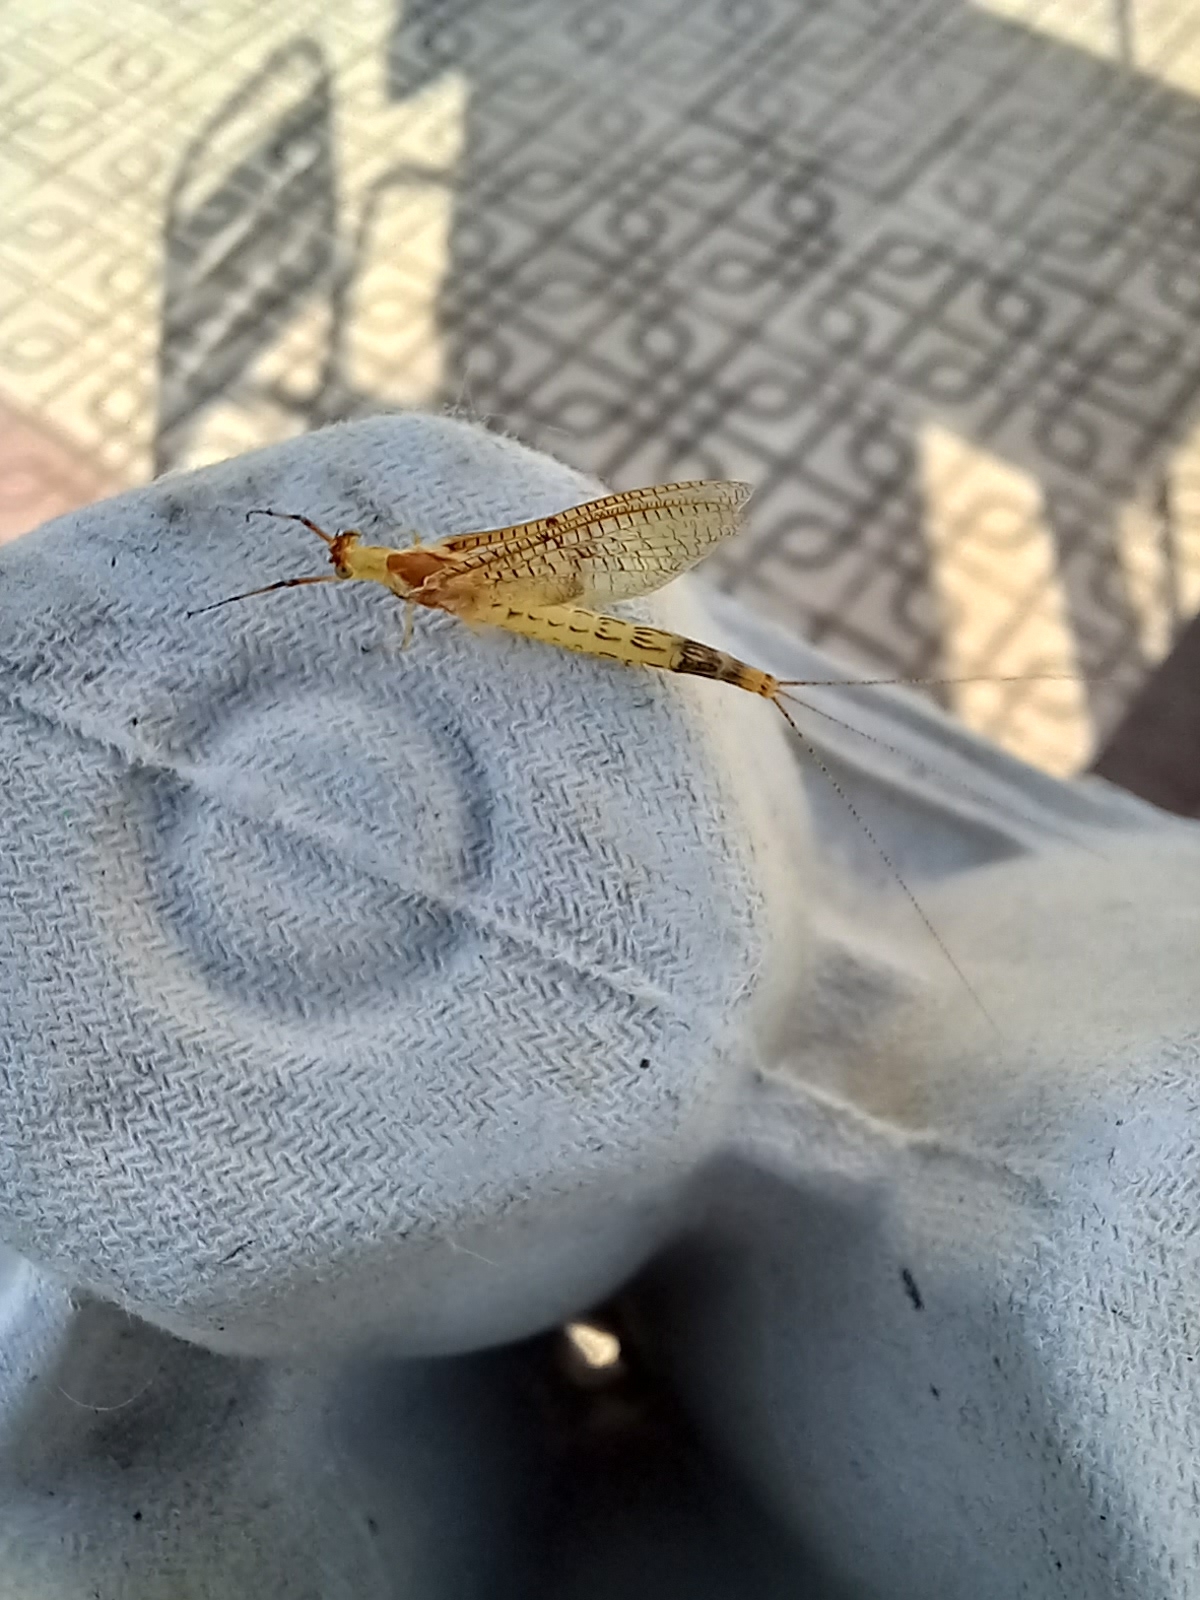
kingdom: Animalia
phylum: Arthropoda
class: Insecta
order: Ephemeroptera
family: Ephemeridae
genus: Ephemera
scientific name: Ephemera glaucops
